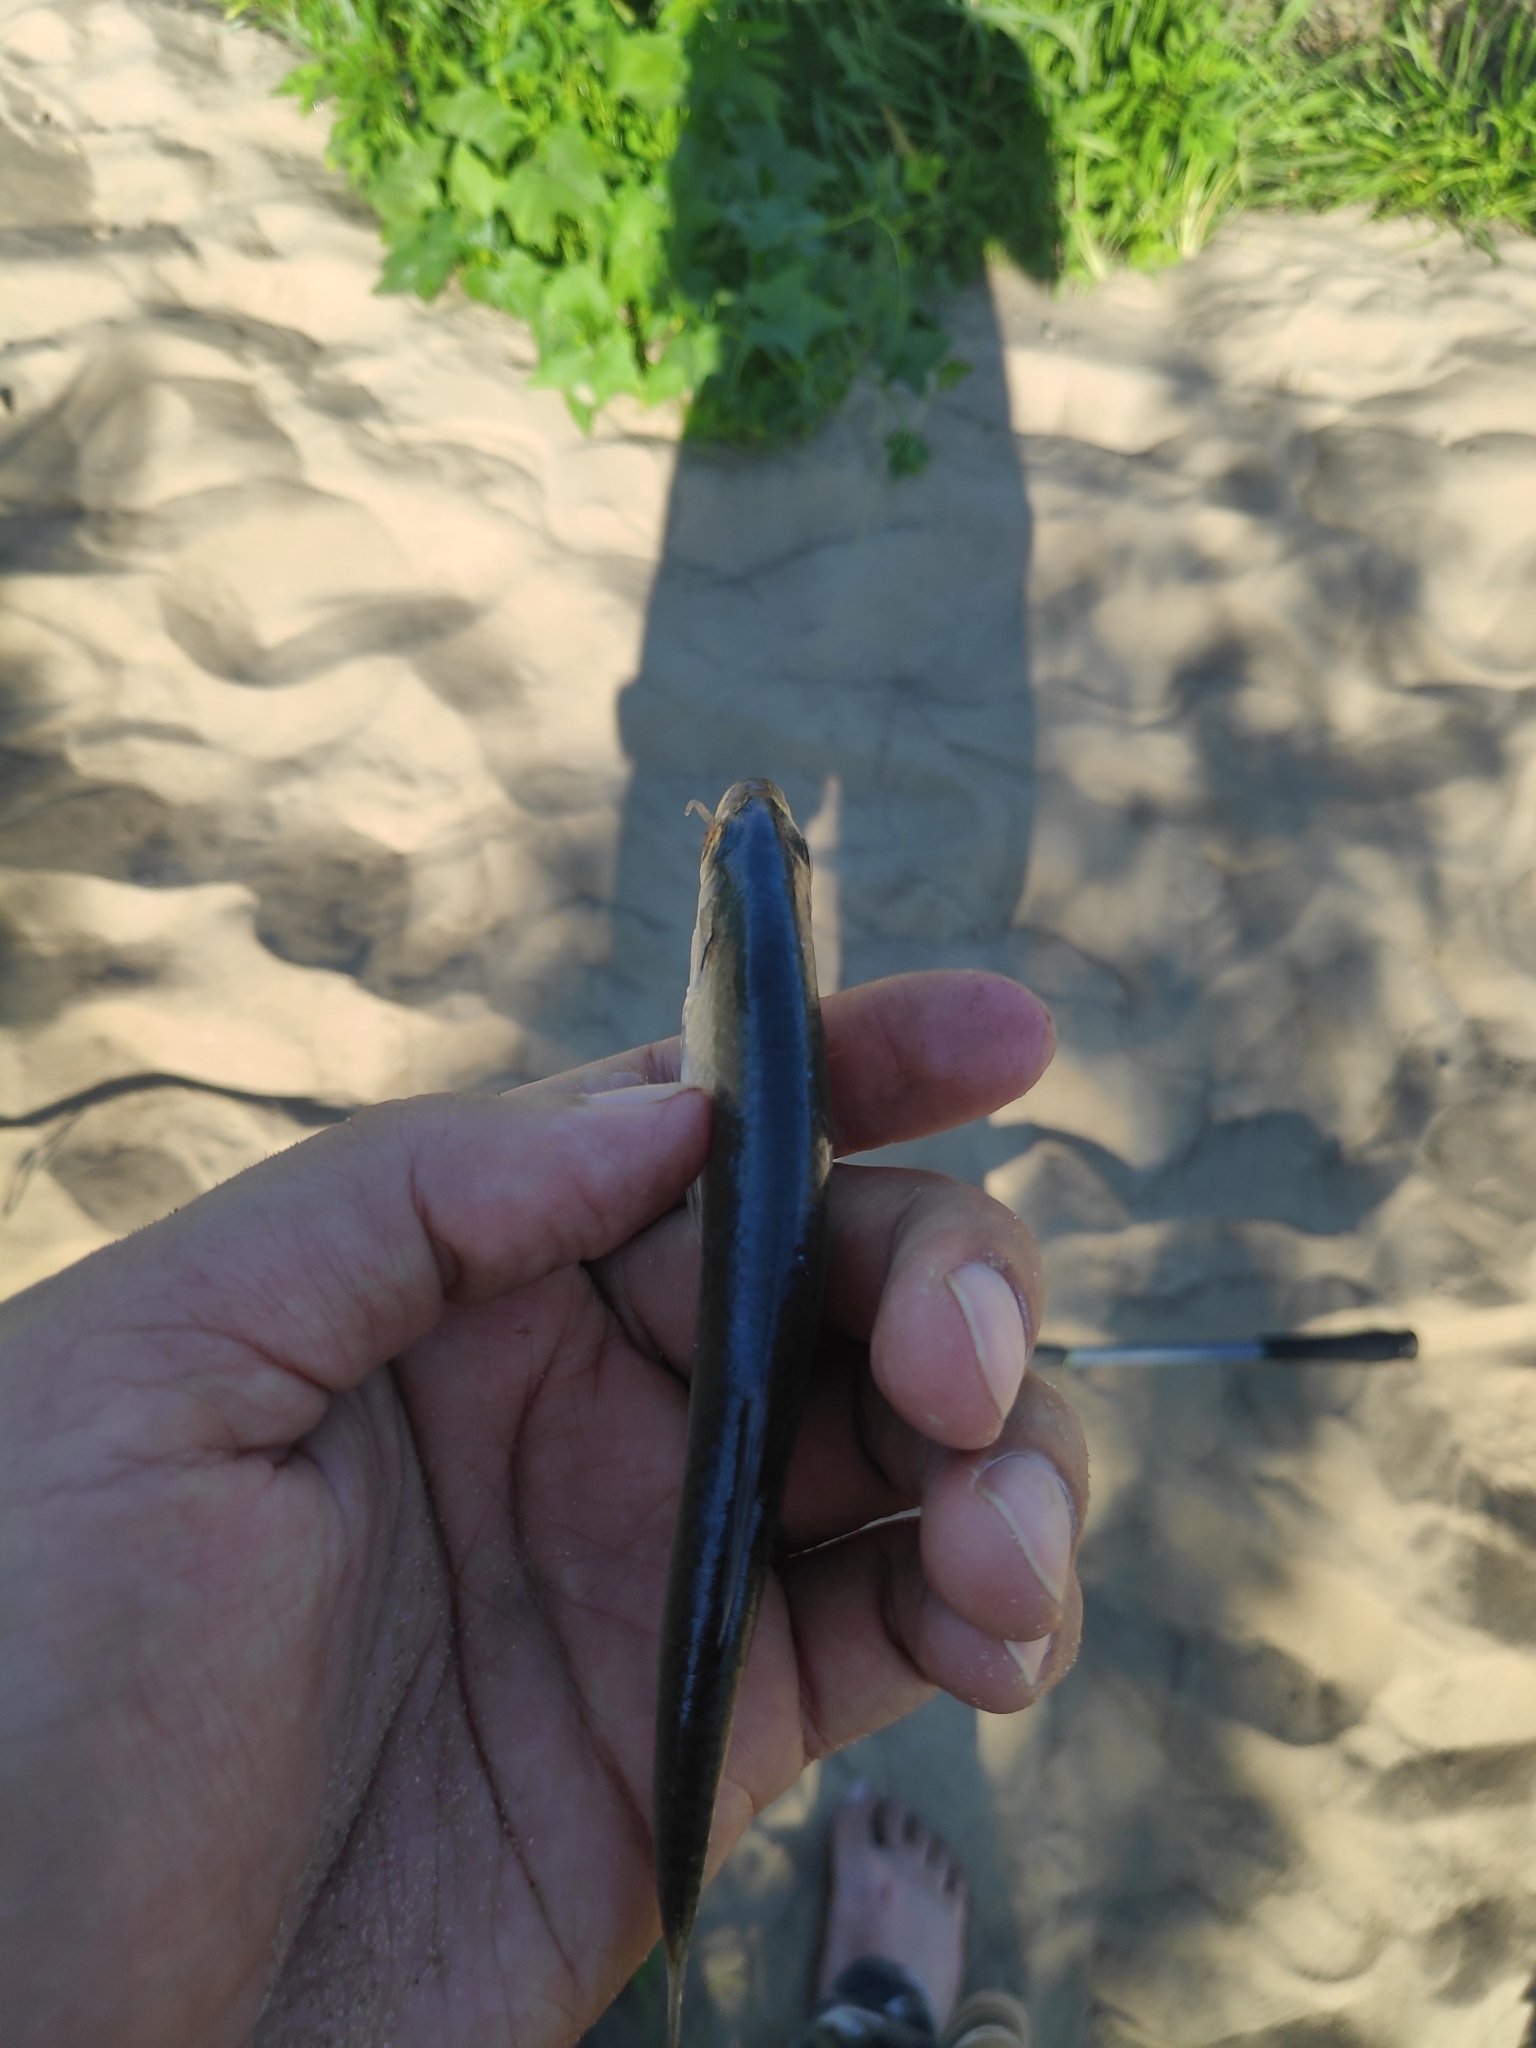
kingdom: Animalia
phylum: Chordata
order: Cypriniformes
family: Cyprinidae
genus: Alburnus
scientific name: Alburnus alburnus
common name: Bleak
